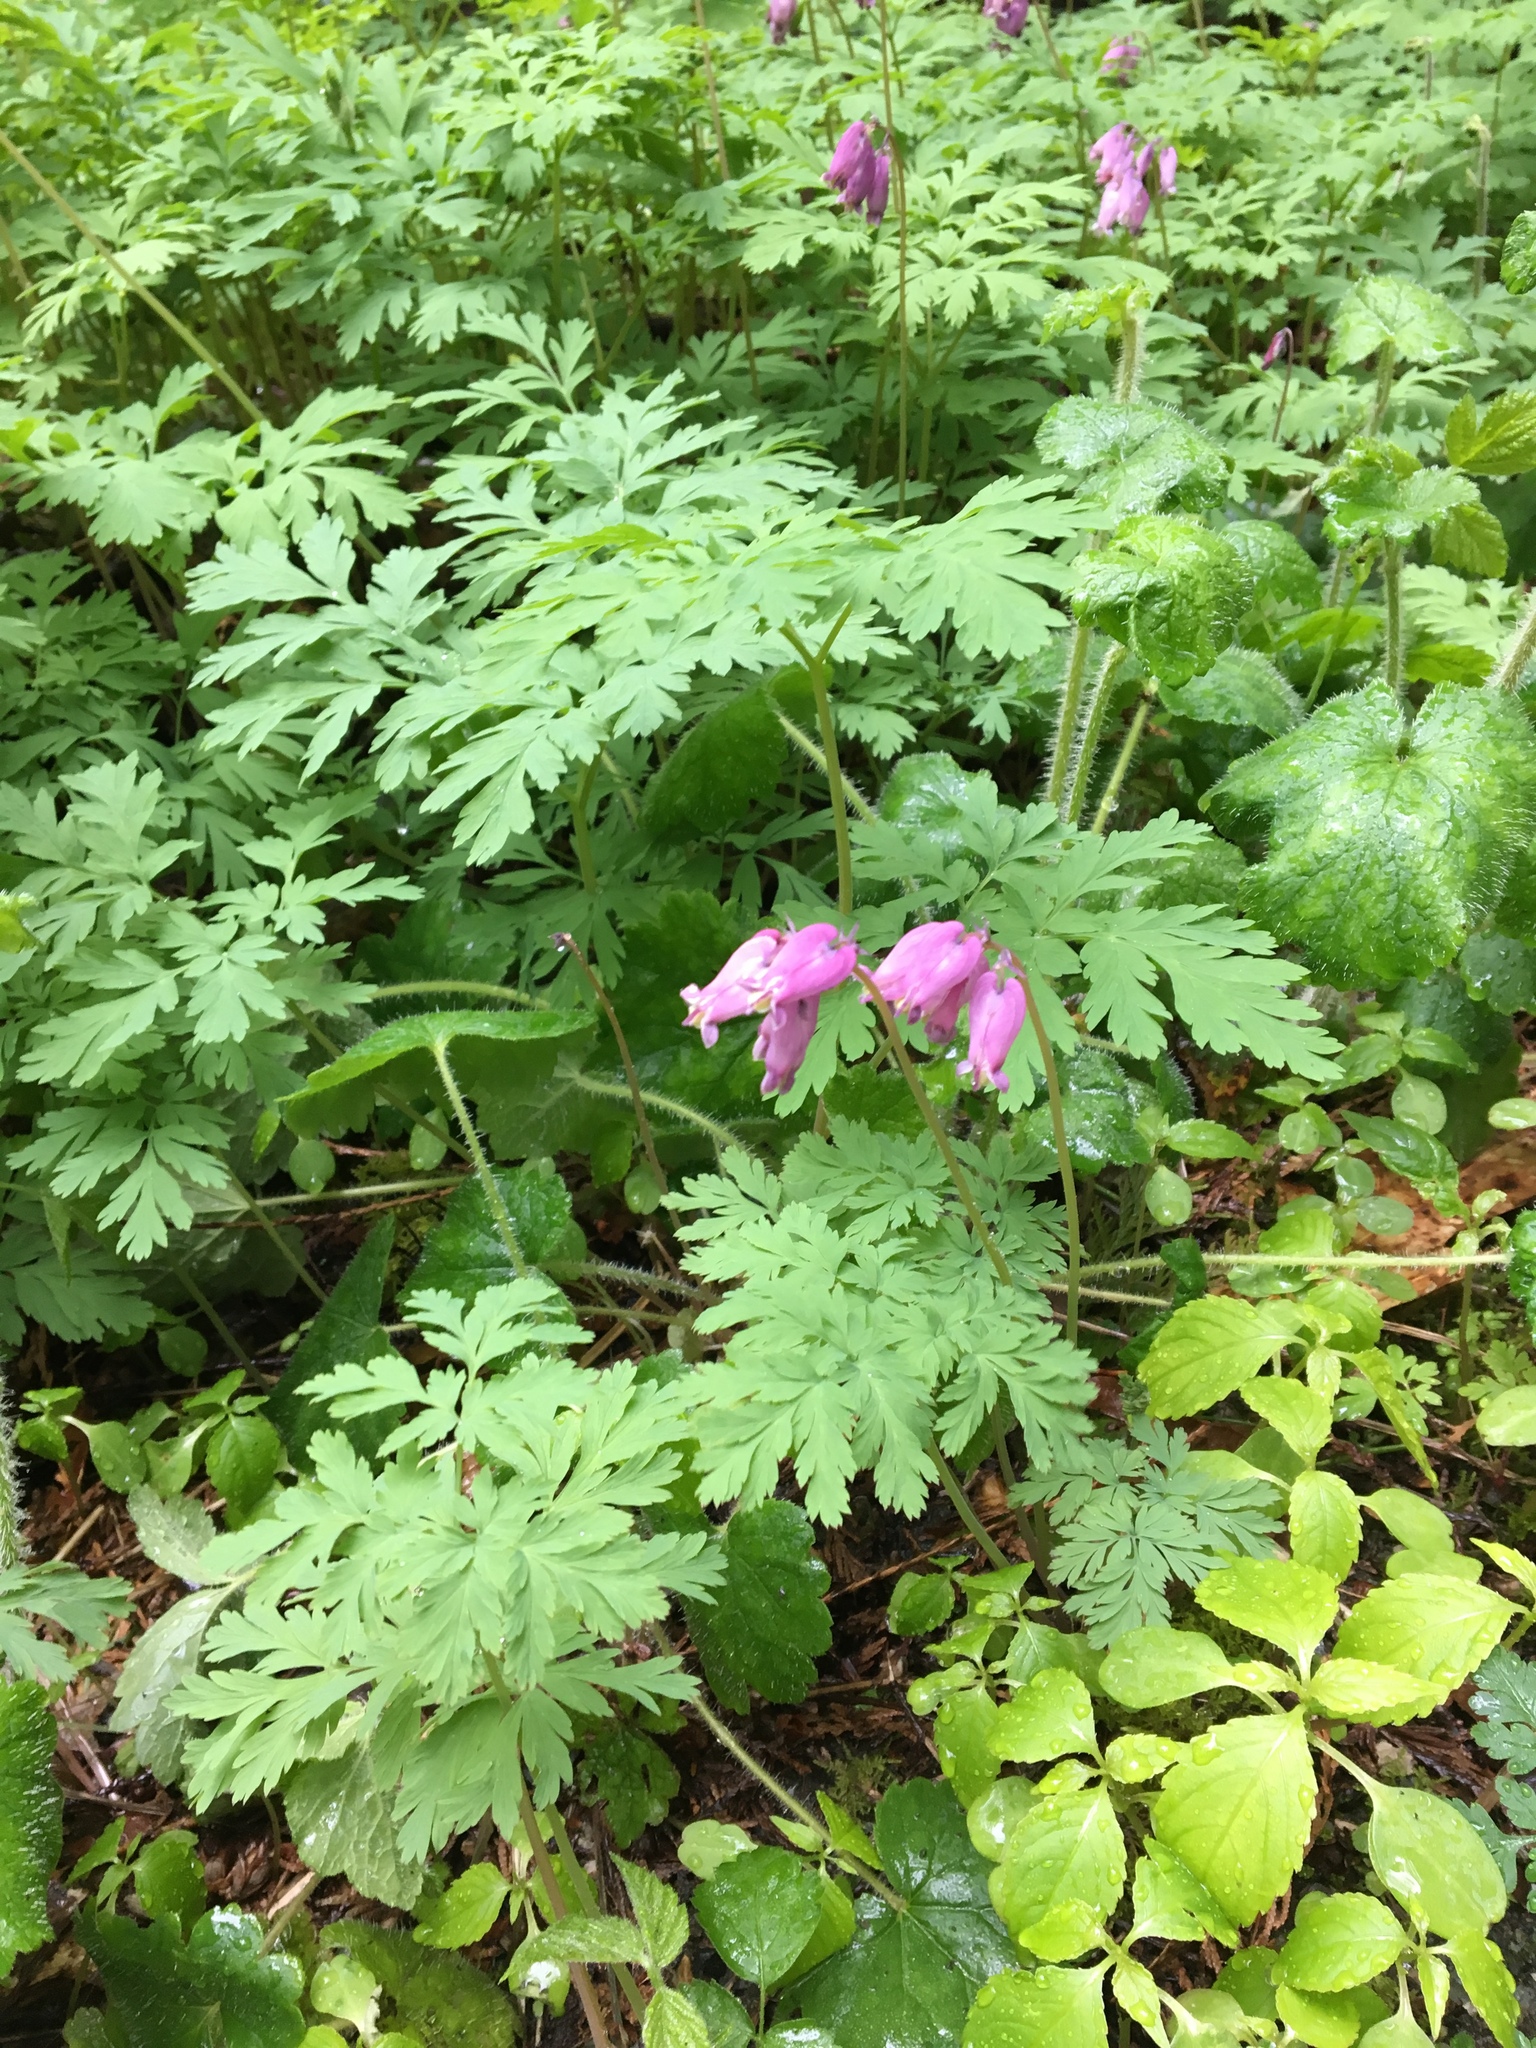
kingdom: Plantae
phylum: Tracheophyta
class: Magnoliopsida
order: Ranunculales
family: Papaveraceae
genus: Dicentra
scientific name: Dicentra formosa
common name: Bleeding-heart
